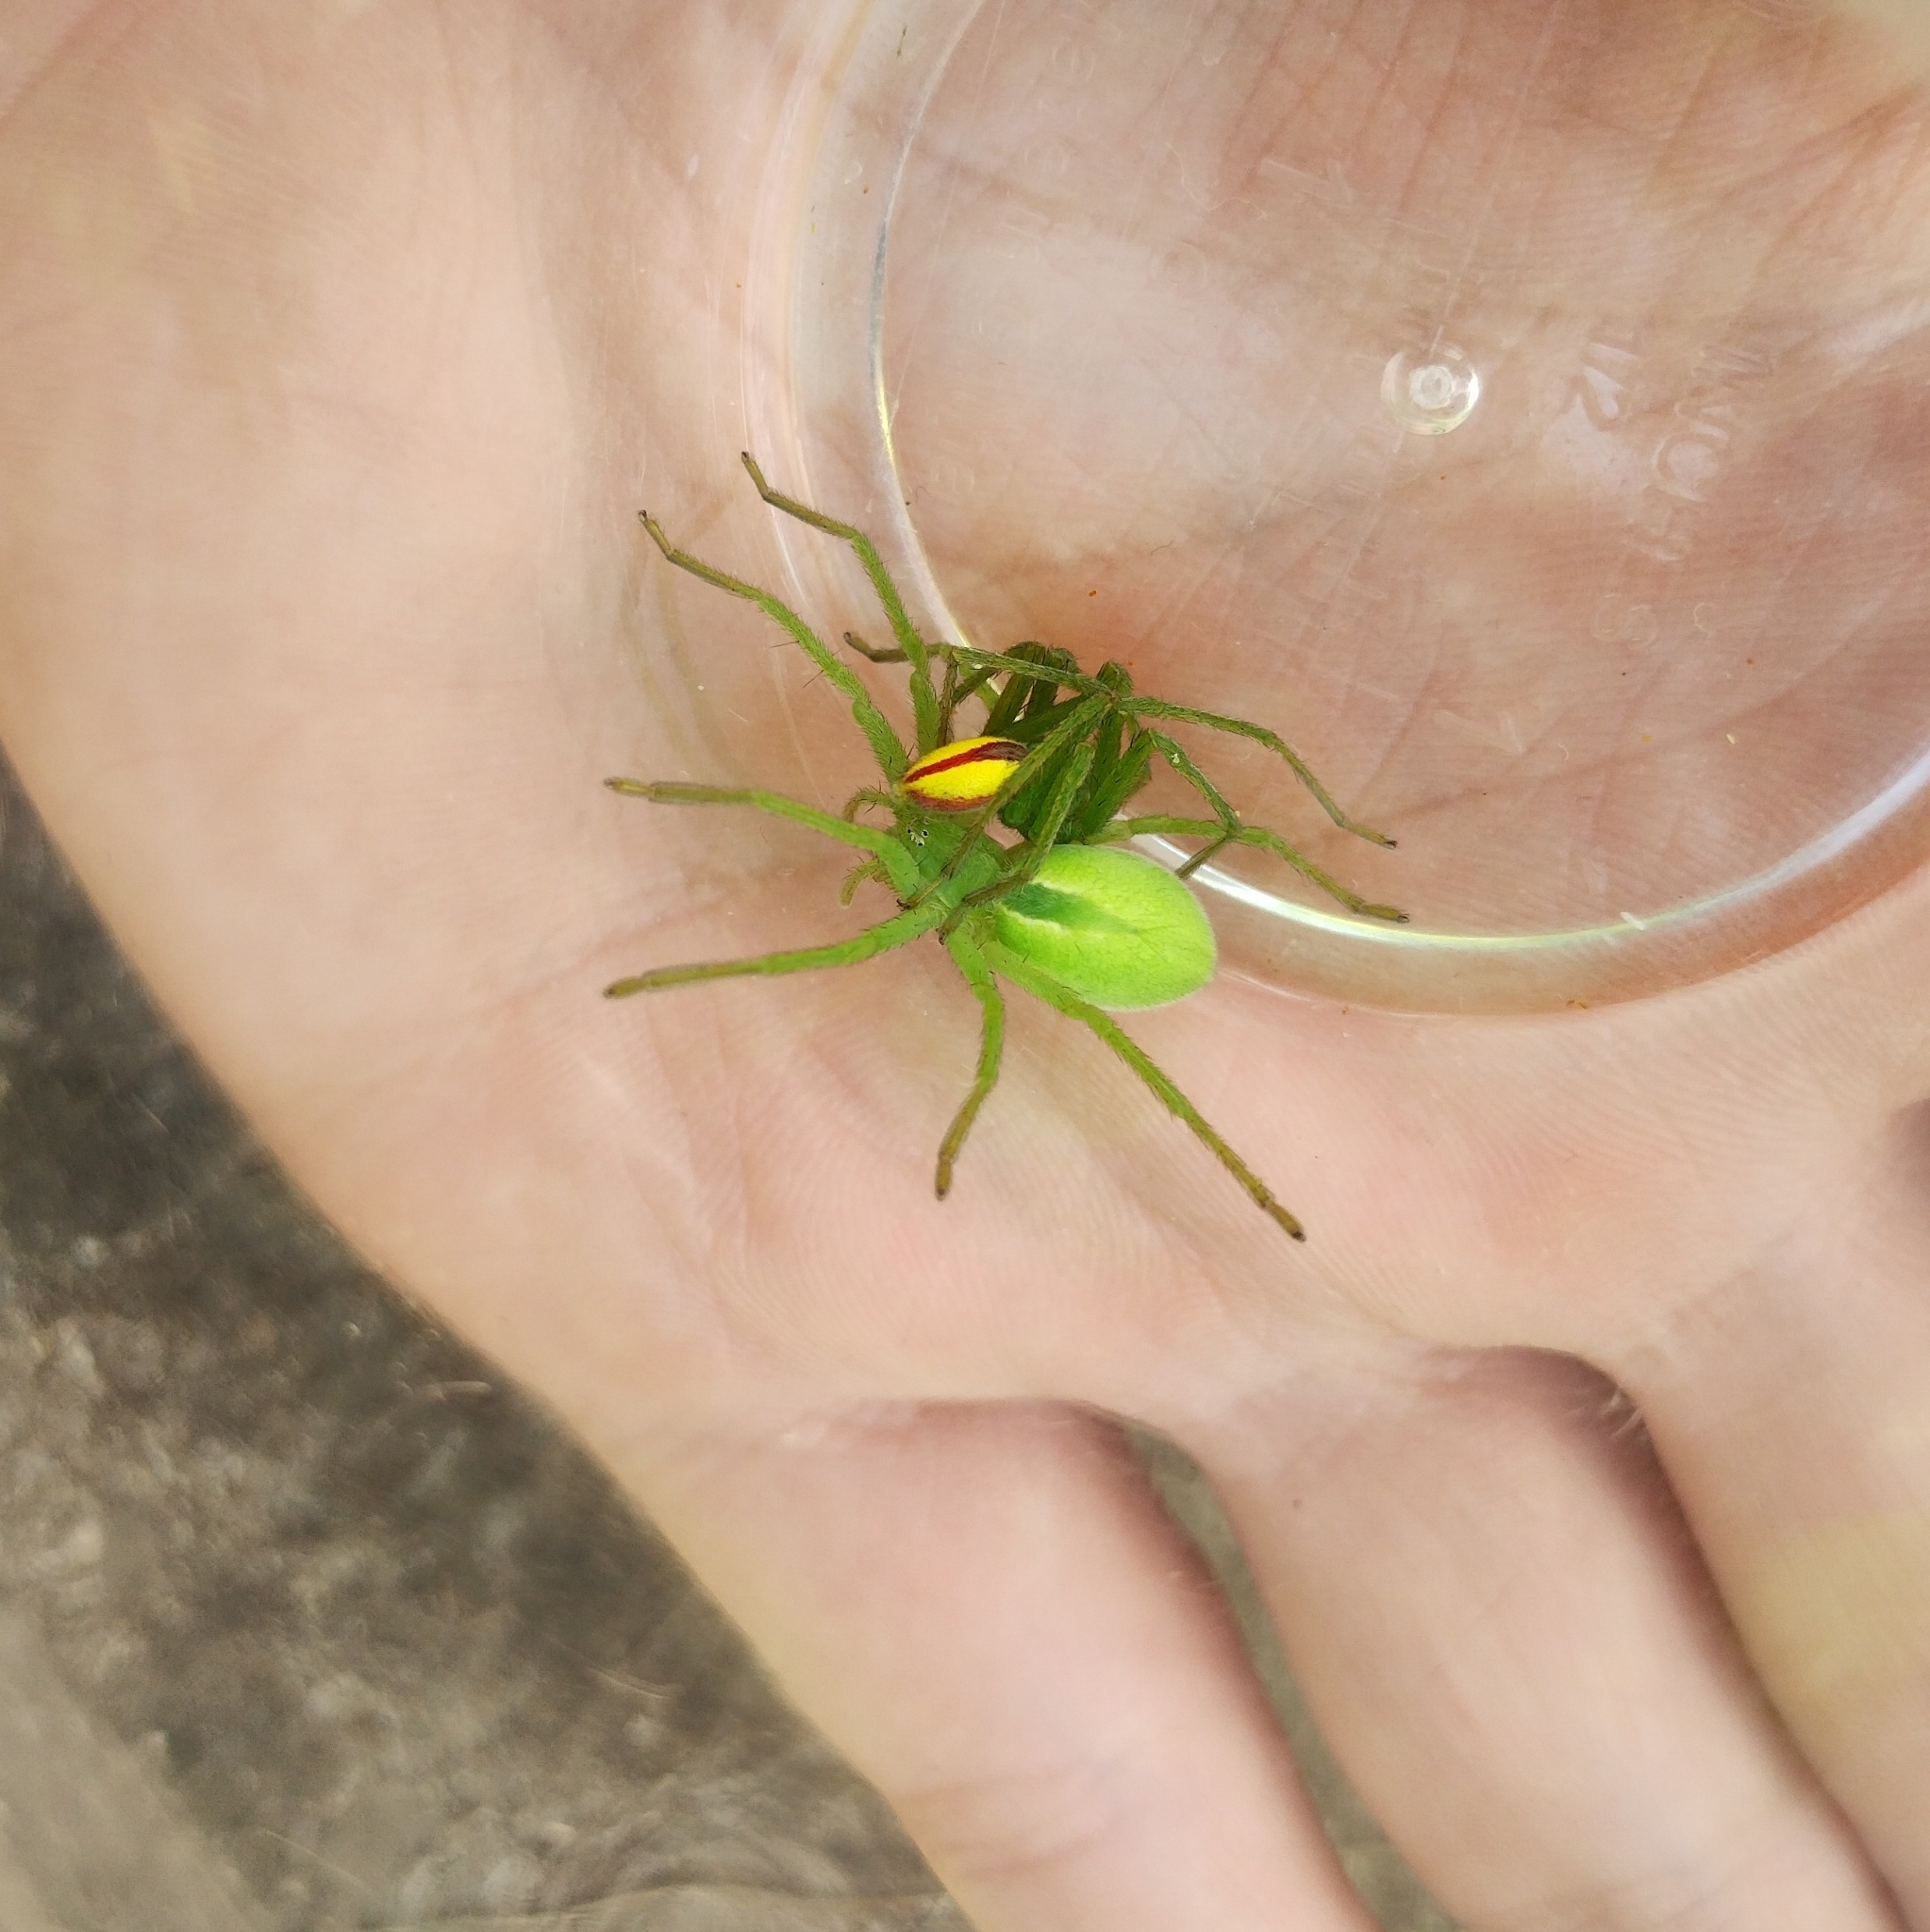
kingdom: Animalia
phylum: Arthropoda
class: Arachnida
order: Araneae
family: Sparassidae
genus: Micrommata
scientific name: Micrommata virescens
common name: Green spider
